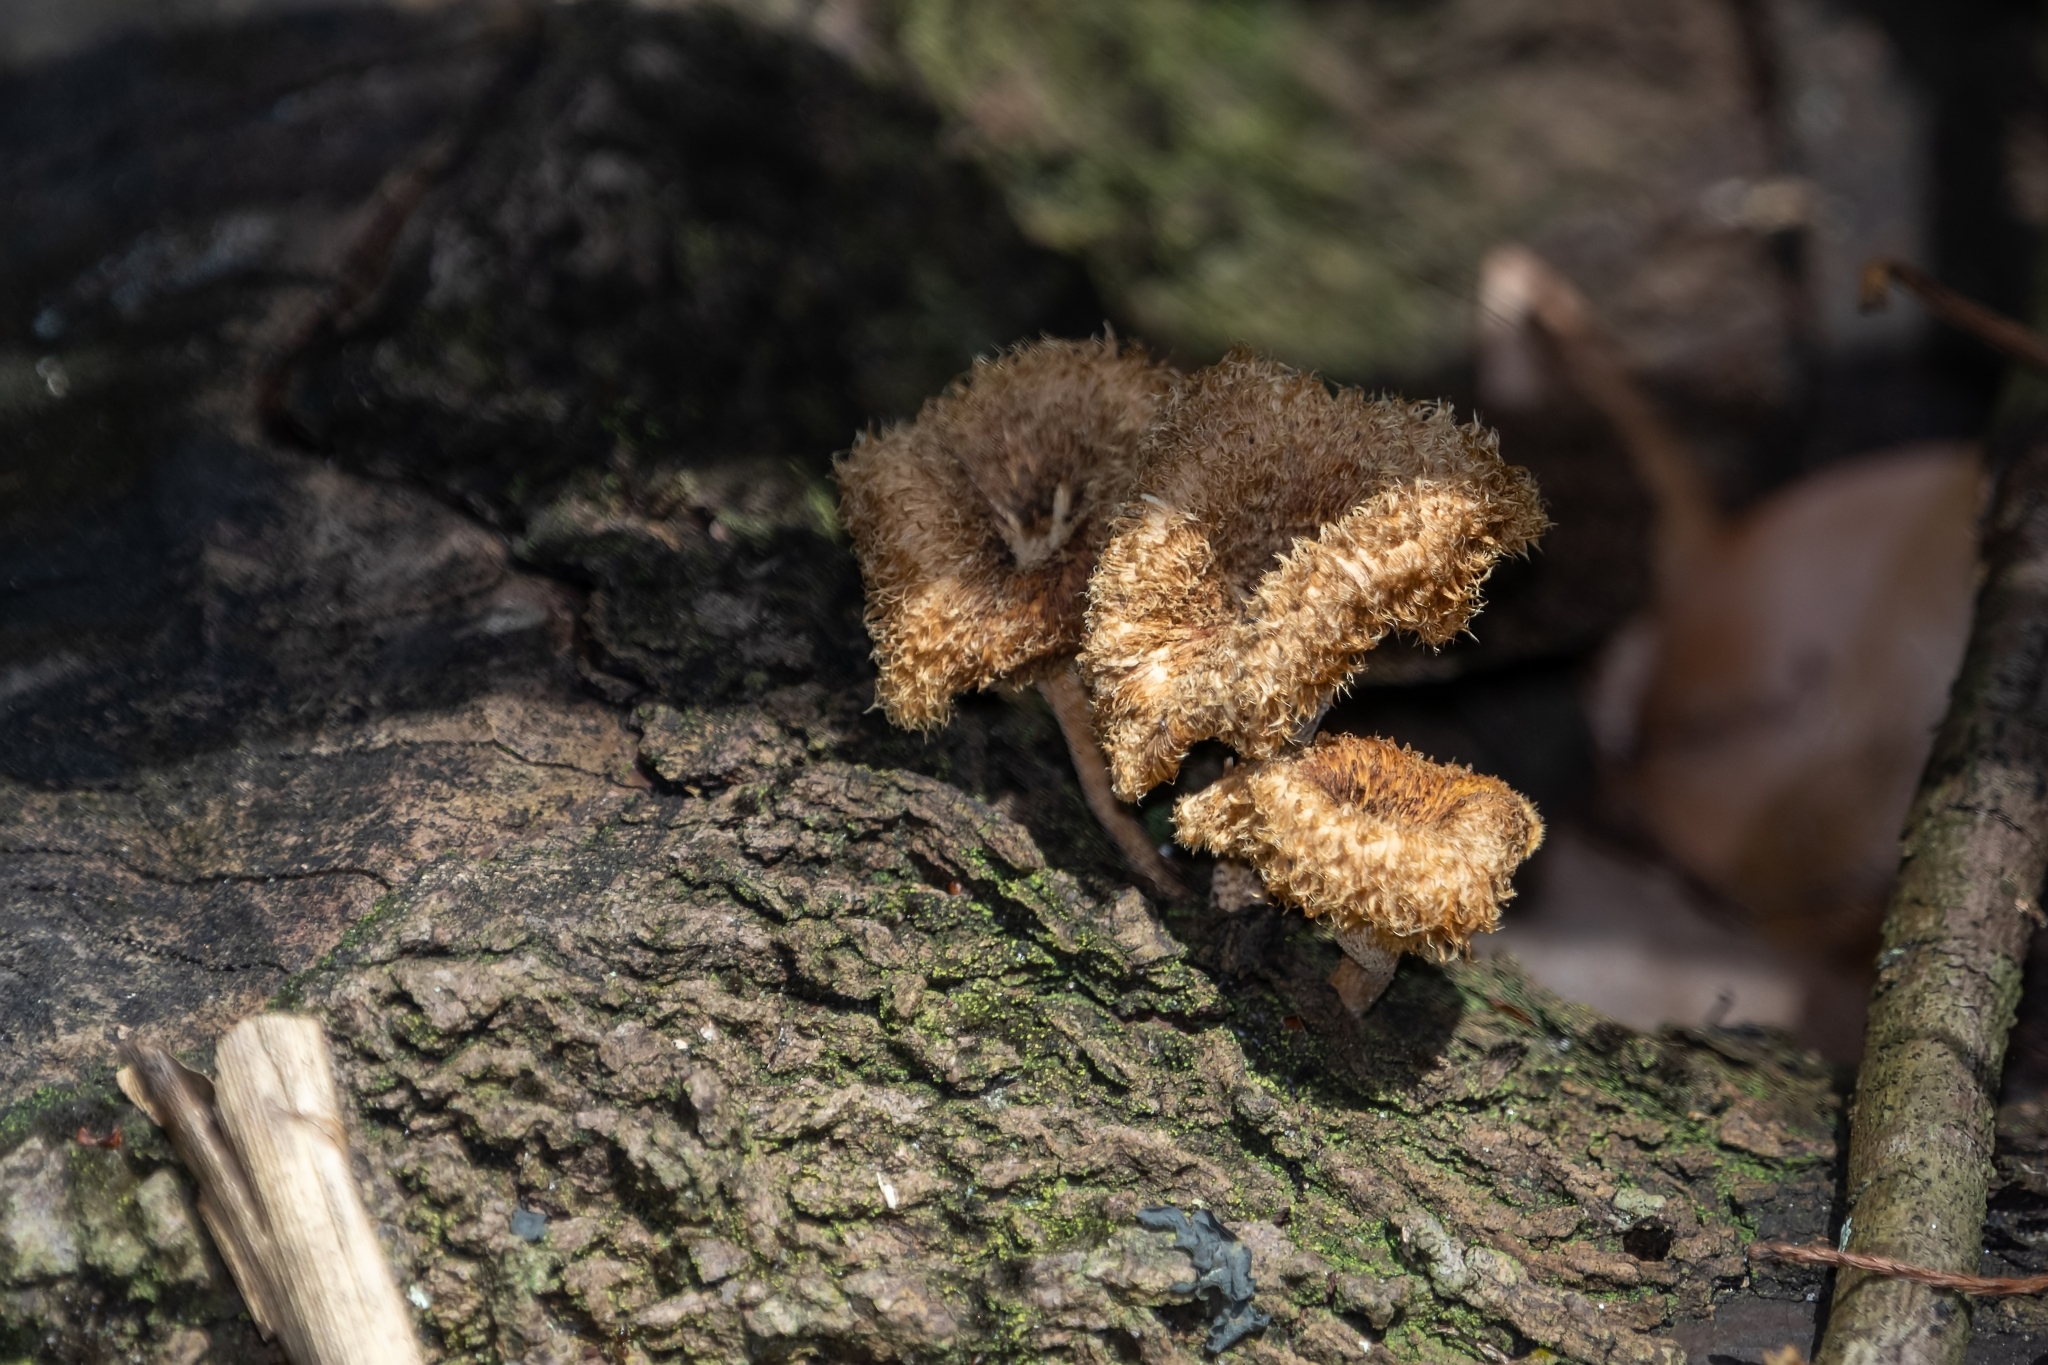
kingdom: Fungi
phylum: Basidiomycota
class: Agaricomycetes
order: Polyporales
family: Polyporaceae
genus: Lentinus
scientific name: Lentinus crinitus
